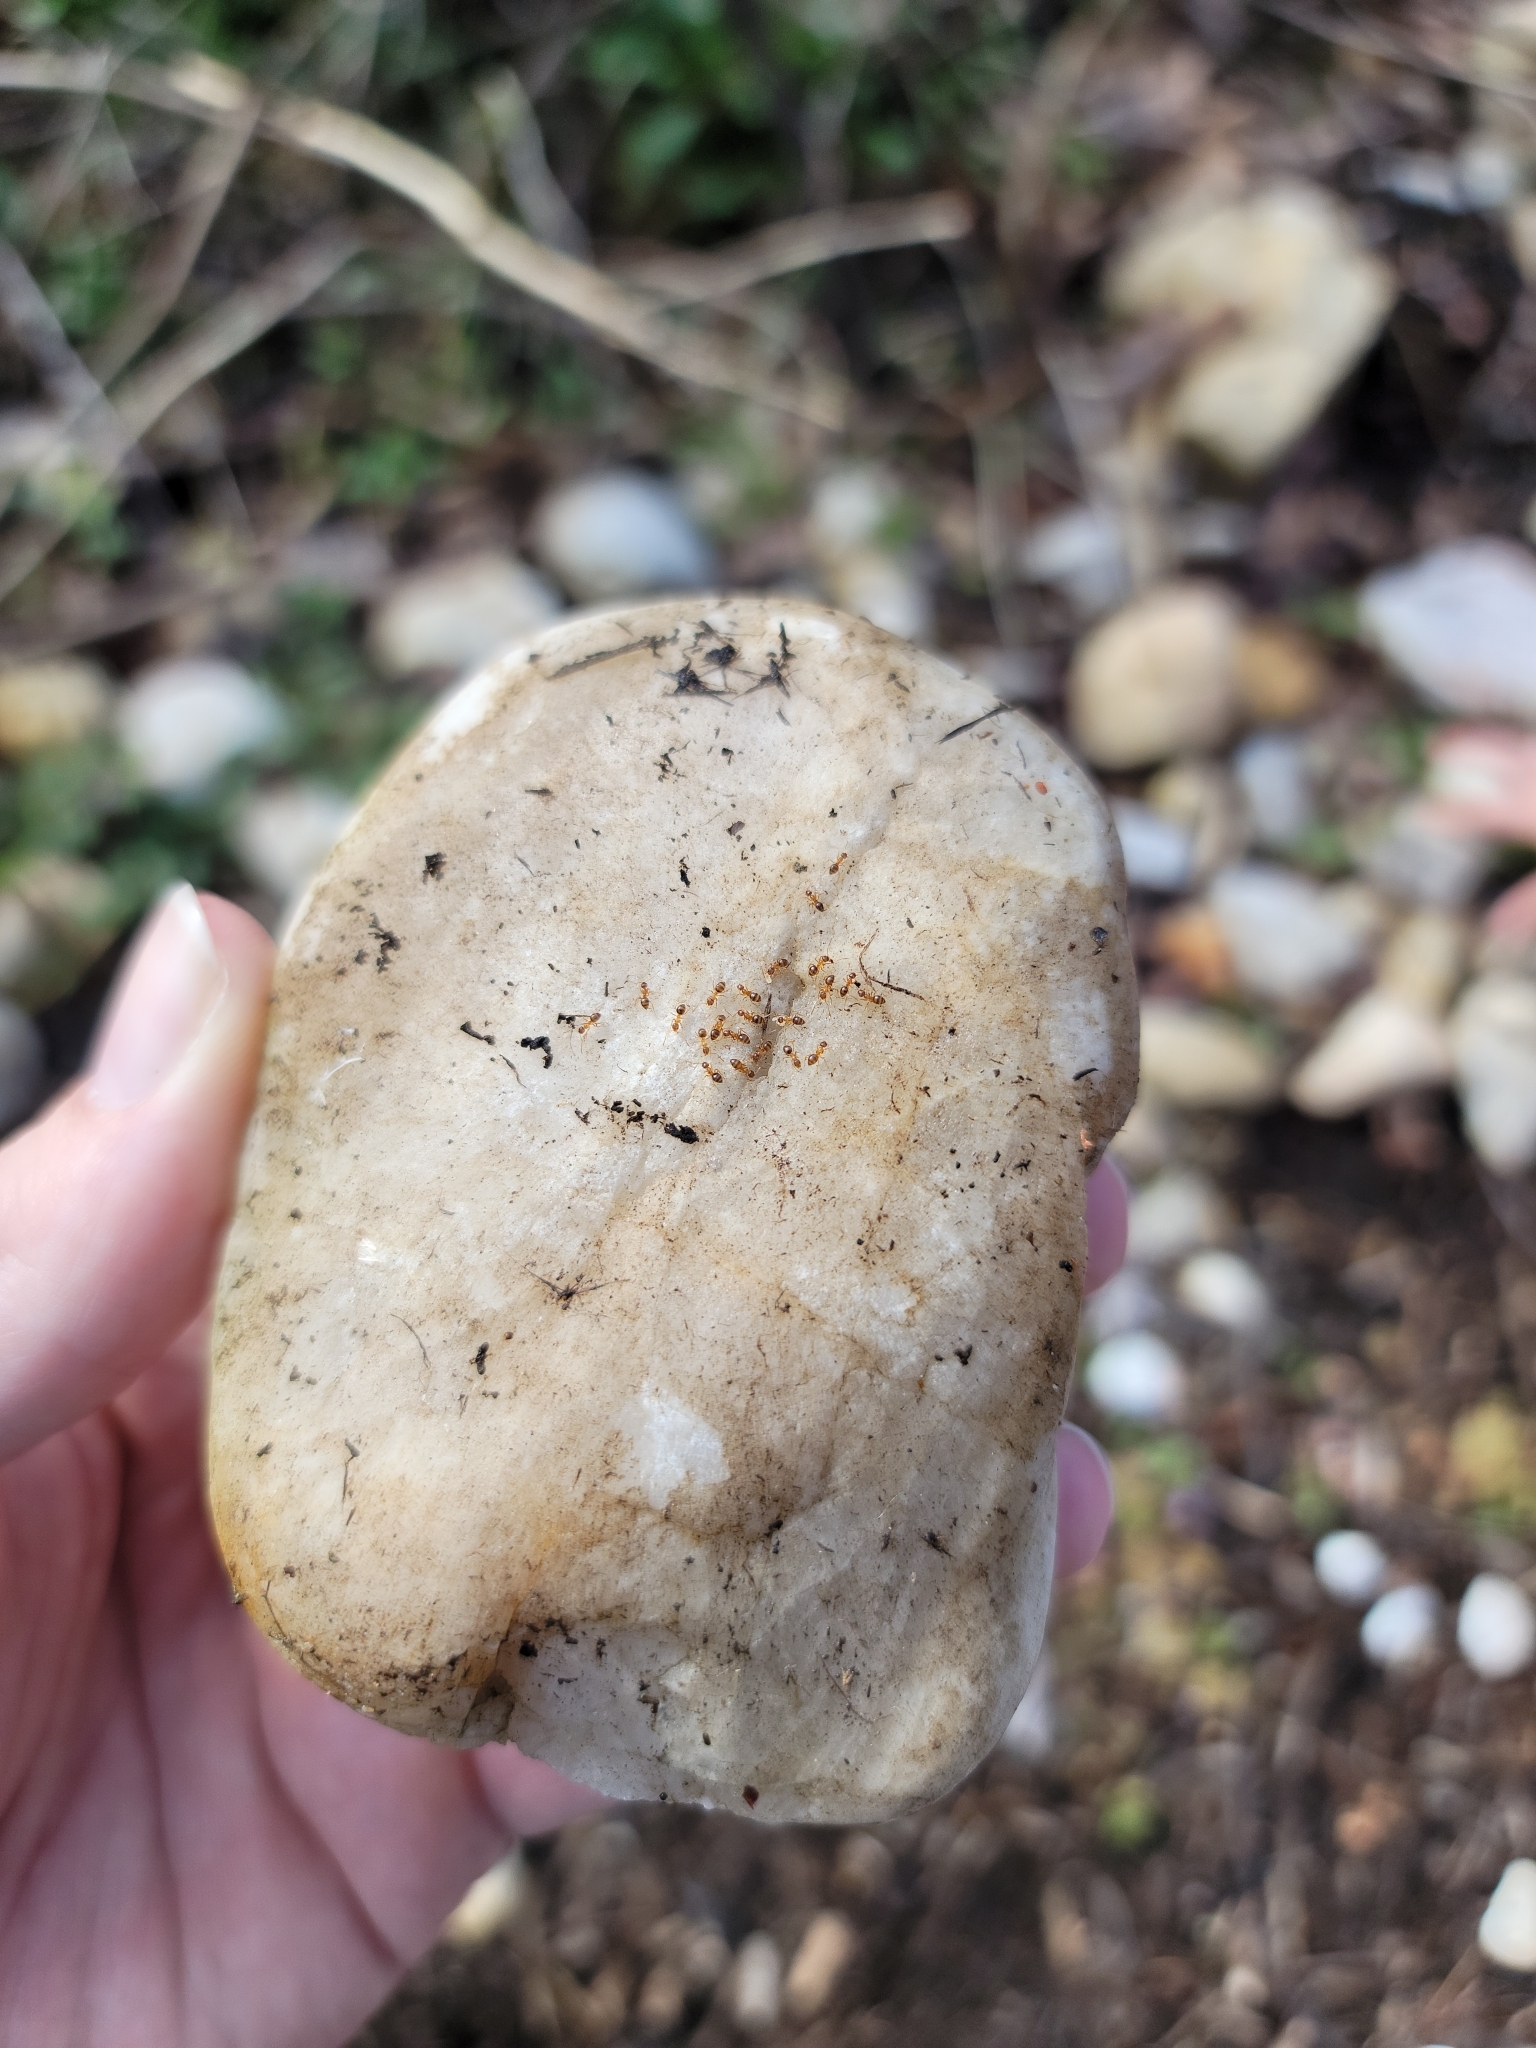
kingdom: Animalia
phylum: Arthropoda
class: Insecta
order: Hymenoptera
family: Formicidae
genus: Paratrechina
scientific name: Paratrechina flavipes
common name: Eastern asian formicine ant
